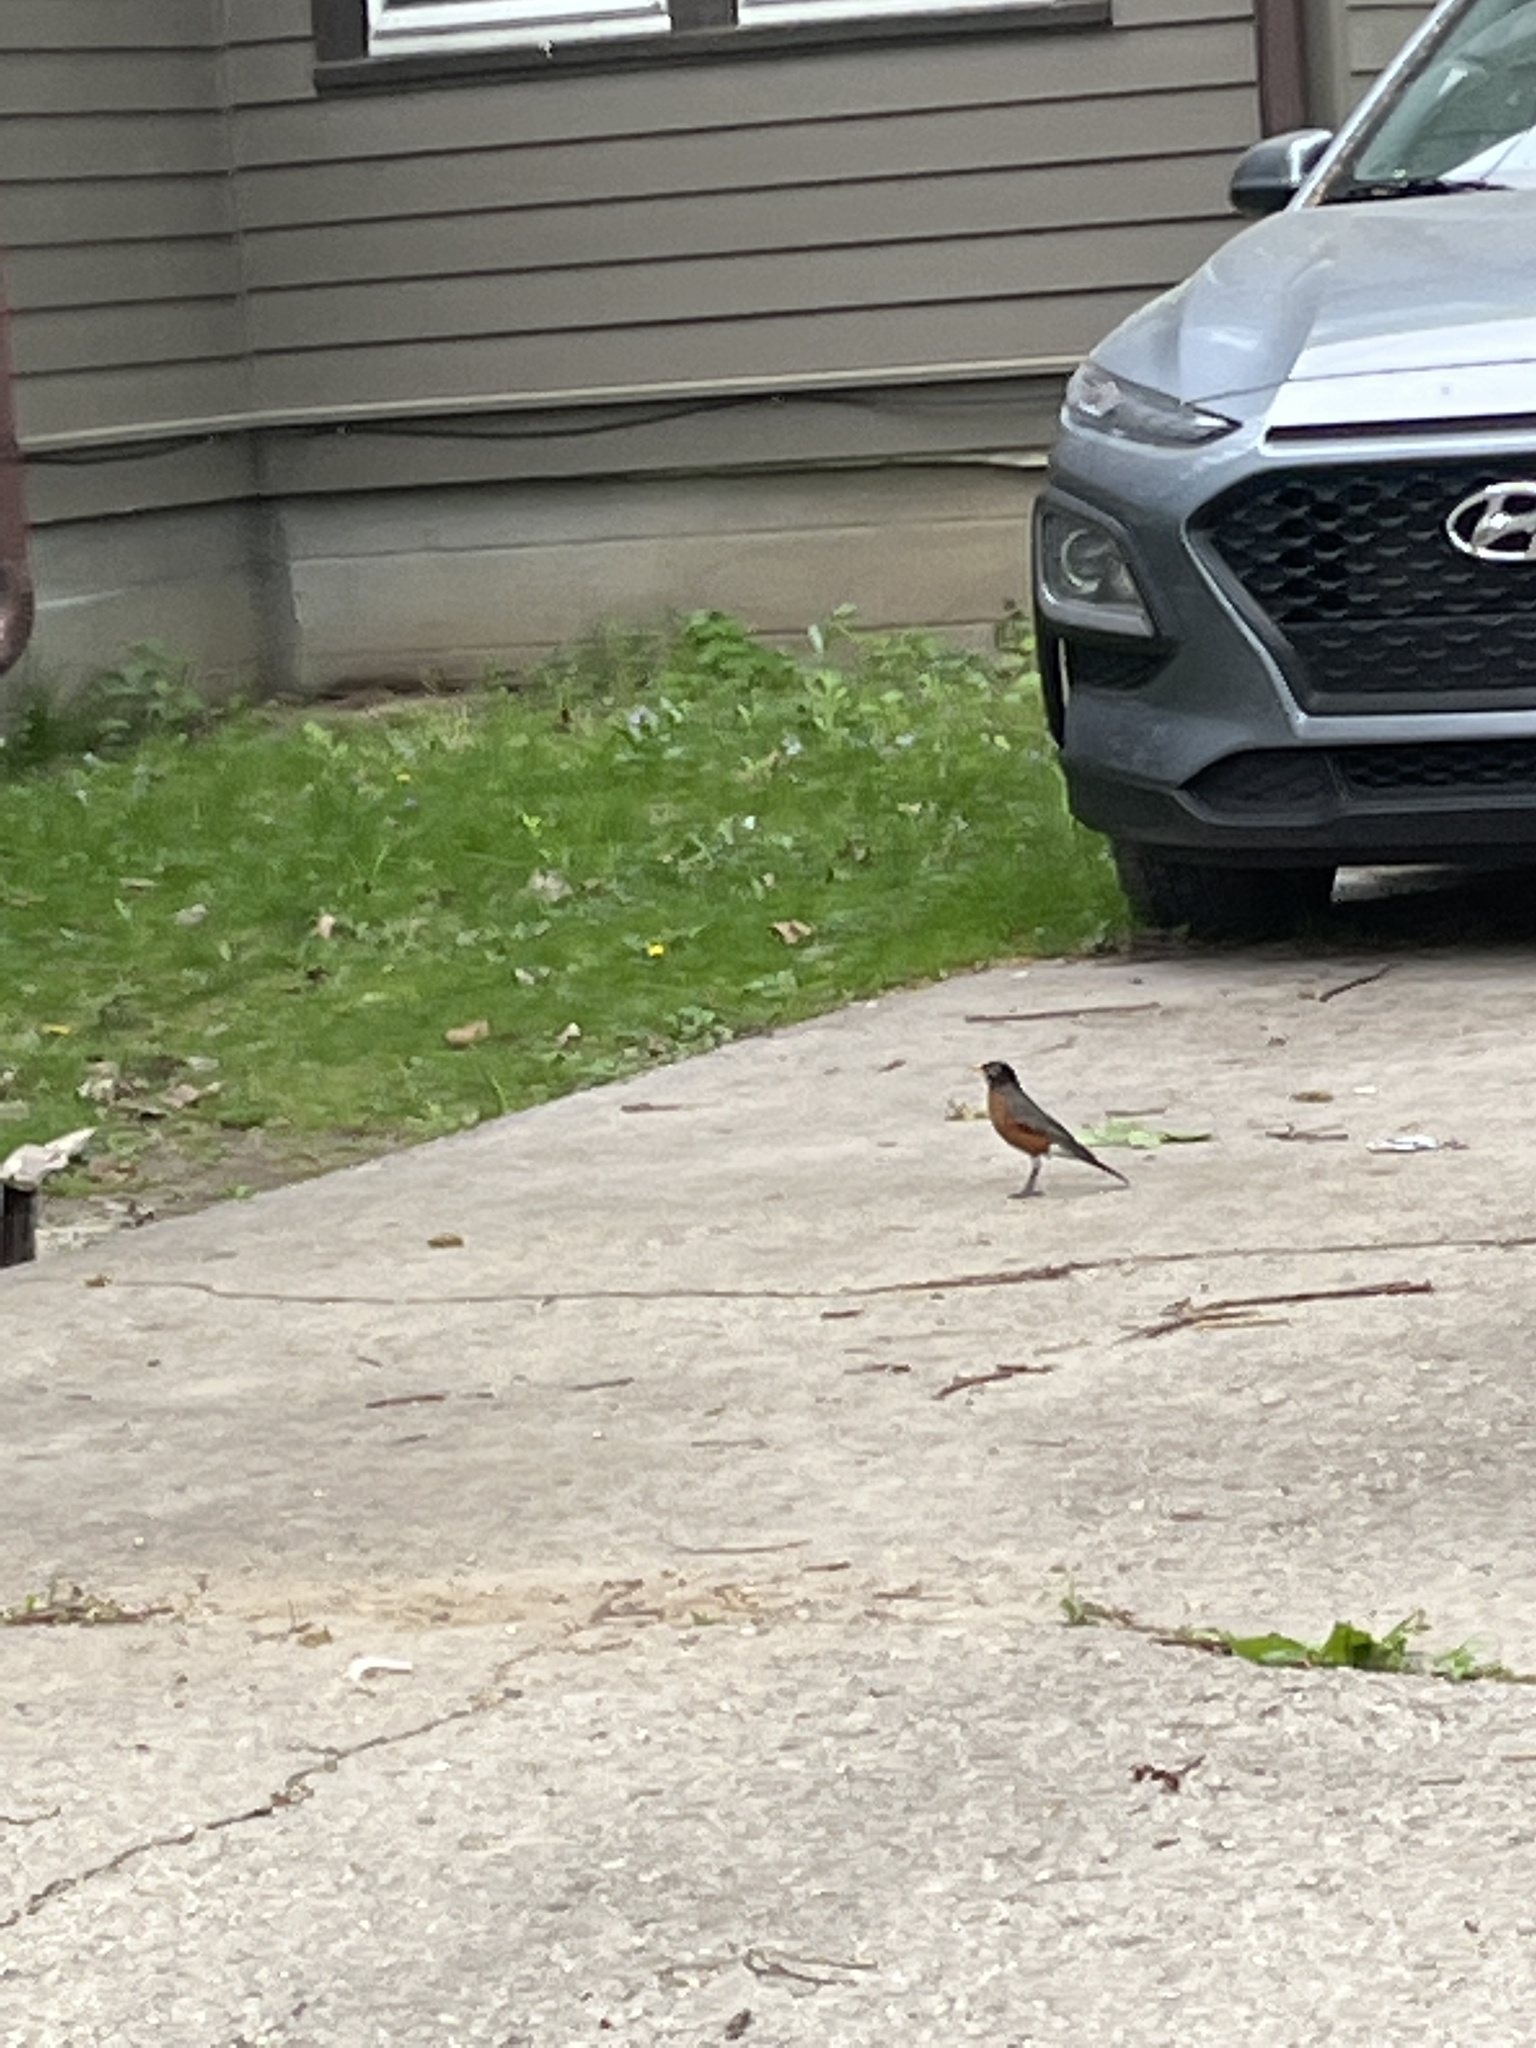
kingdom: Animalia
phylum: Chordata
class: Aves
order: Passeriformes
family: Turdidae
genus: Turdus
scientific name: Turdus migratorius
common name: American robin
